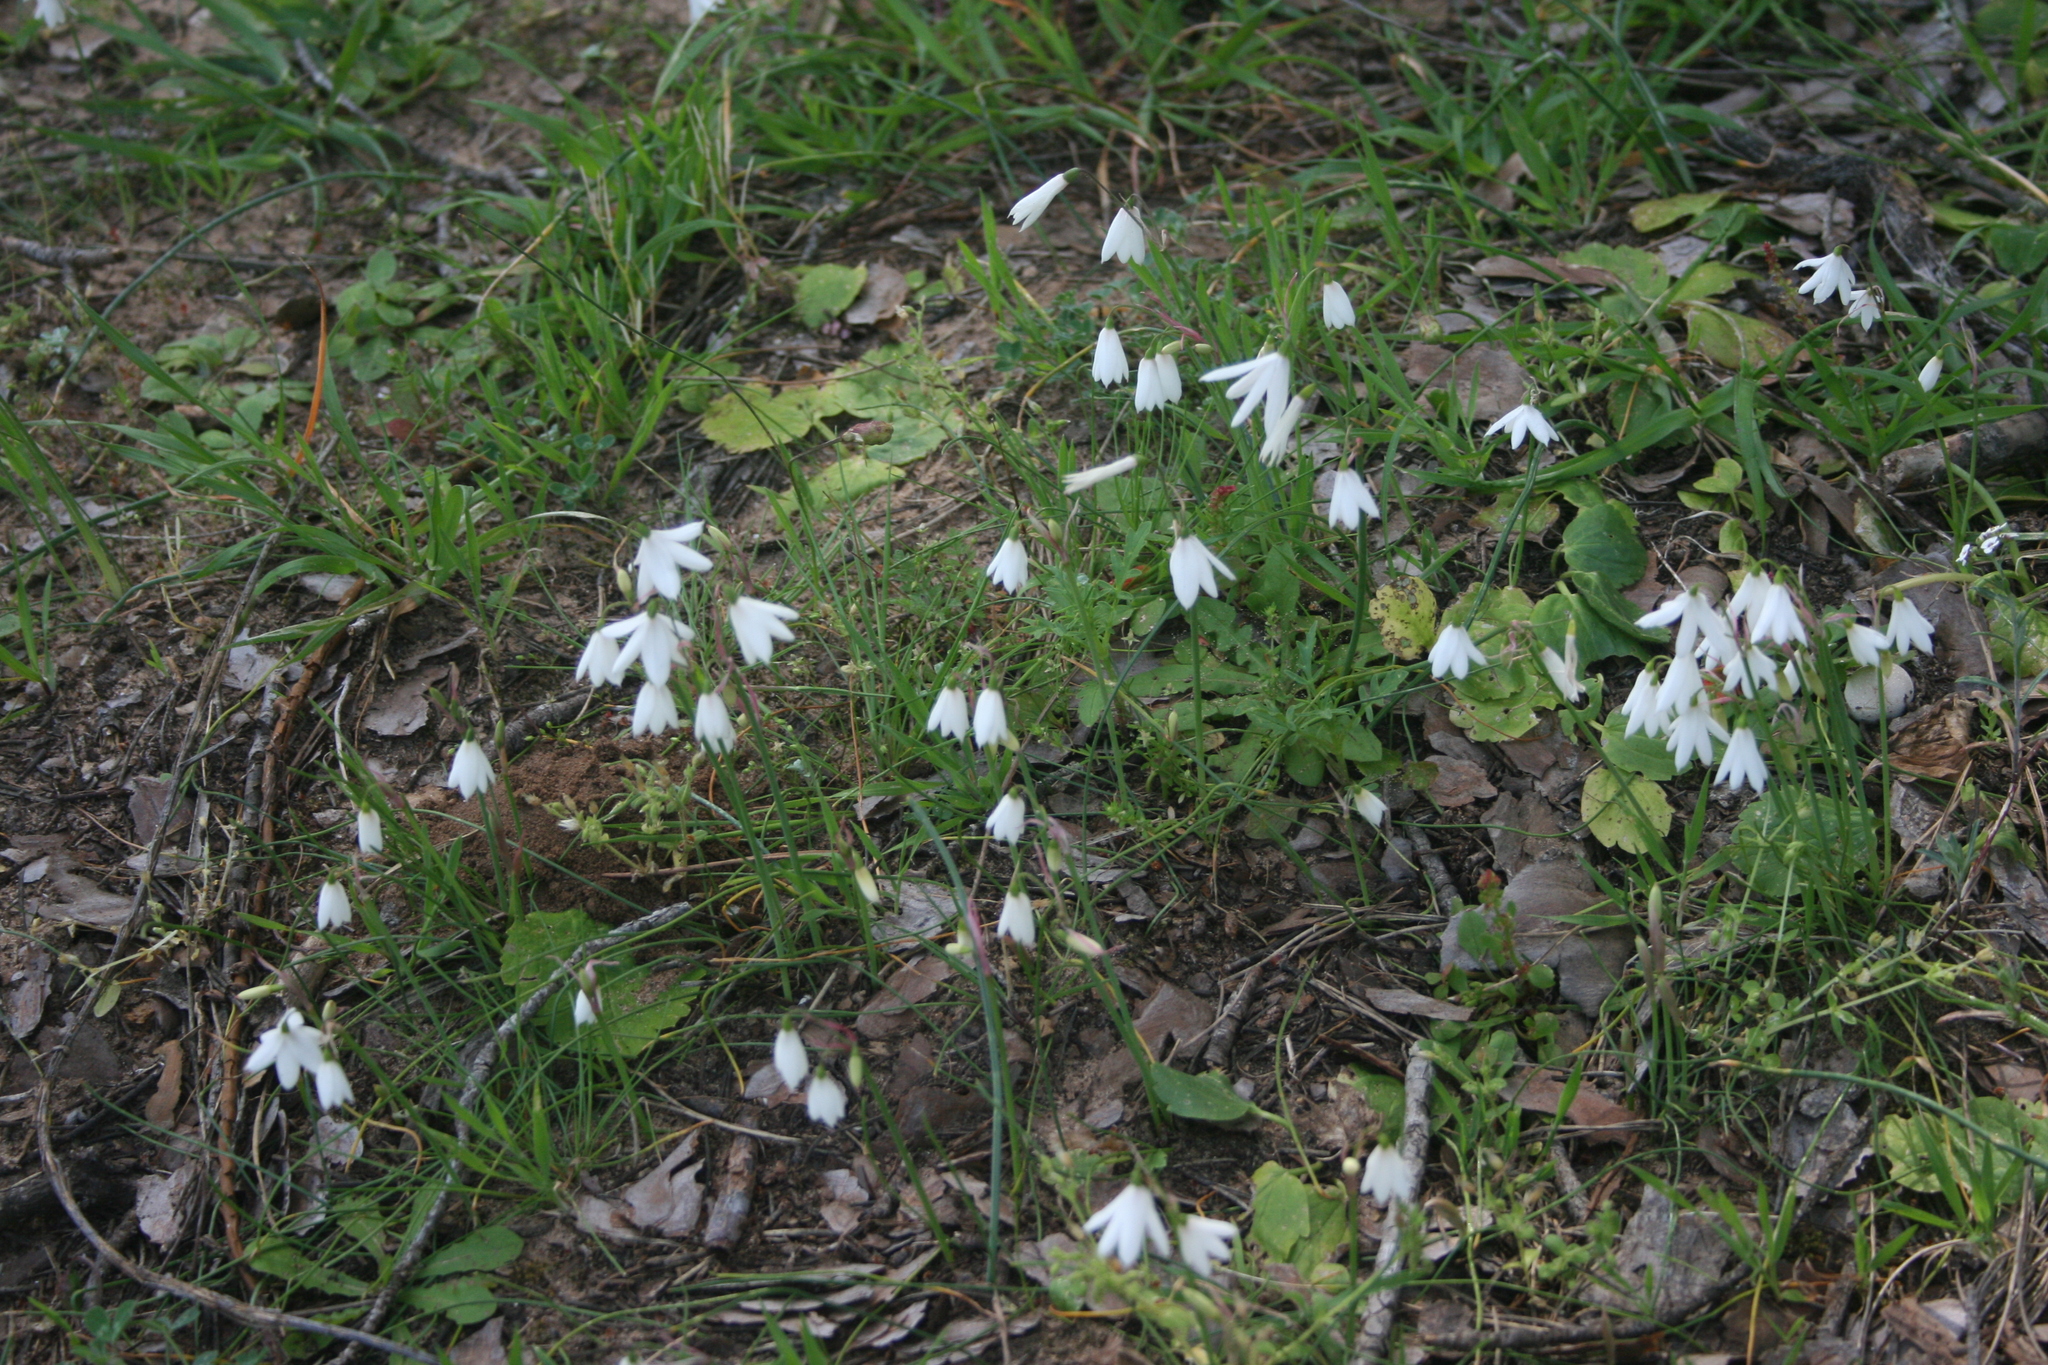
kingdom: Plantae
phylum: Tracheophyta
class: Liliopsida
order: Asparagales
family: Amaryllidaceae
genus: Acis
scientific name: Acis trichophylla
